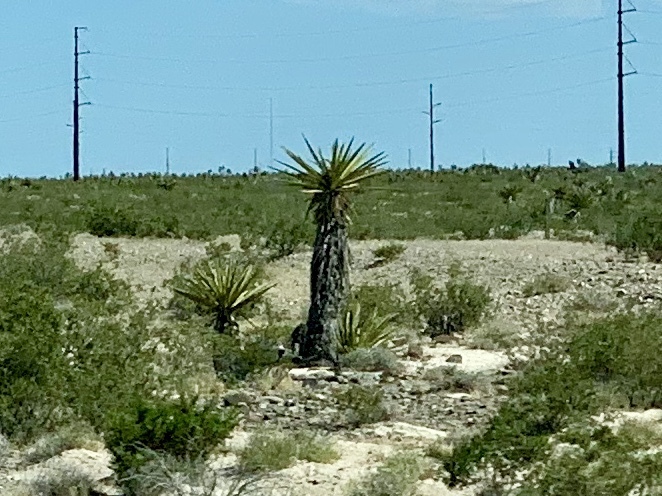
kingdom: Plantae
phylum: Tracheophyta
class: Liliopsida
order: Asparagales
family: Asparagaceae
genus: Yucca
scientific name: Yucca schidigera
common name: Mojave yucca
